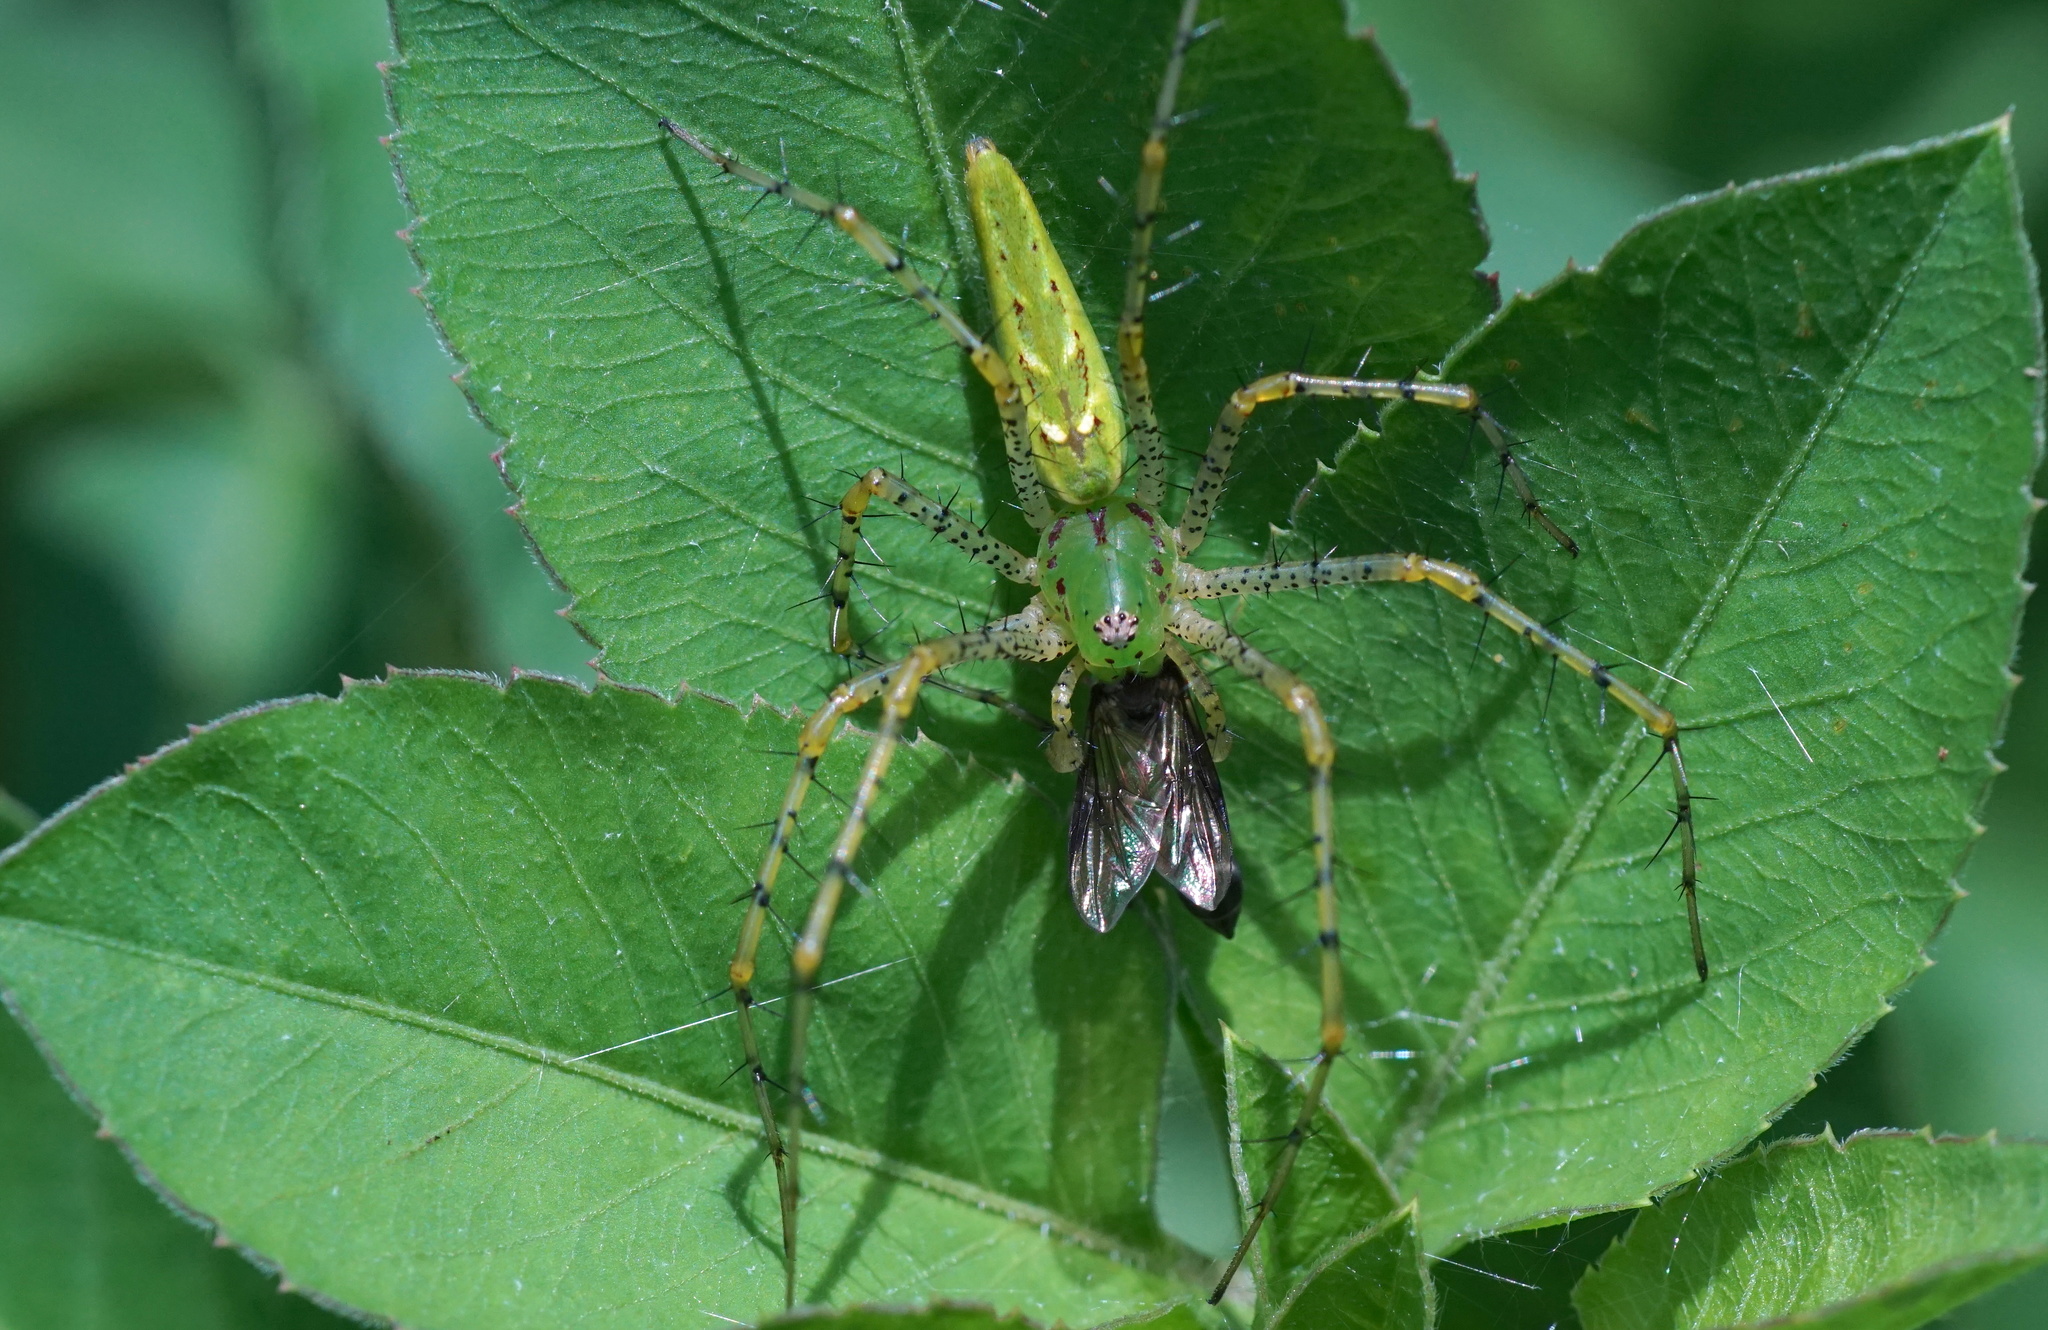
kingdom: Animalia
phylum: Arthropoda
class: Arachnida
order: Araneae
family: Oxyopidae
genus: Peucetia
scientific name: Peucetia viridans
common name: Lynx spiders
